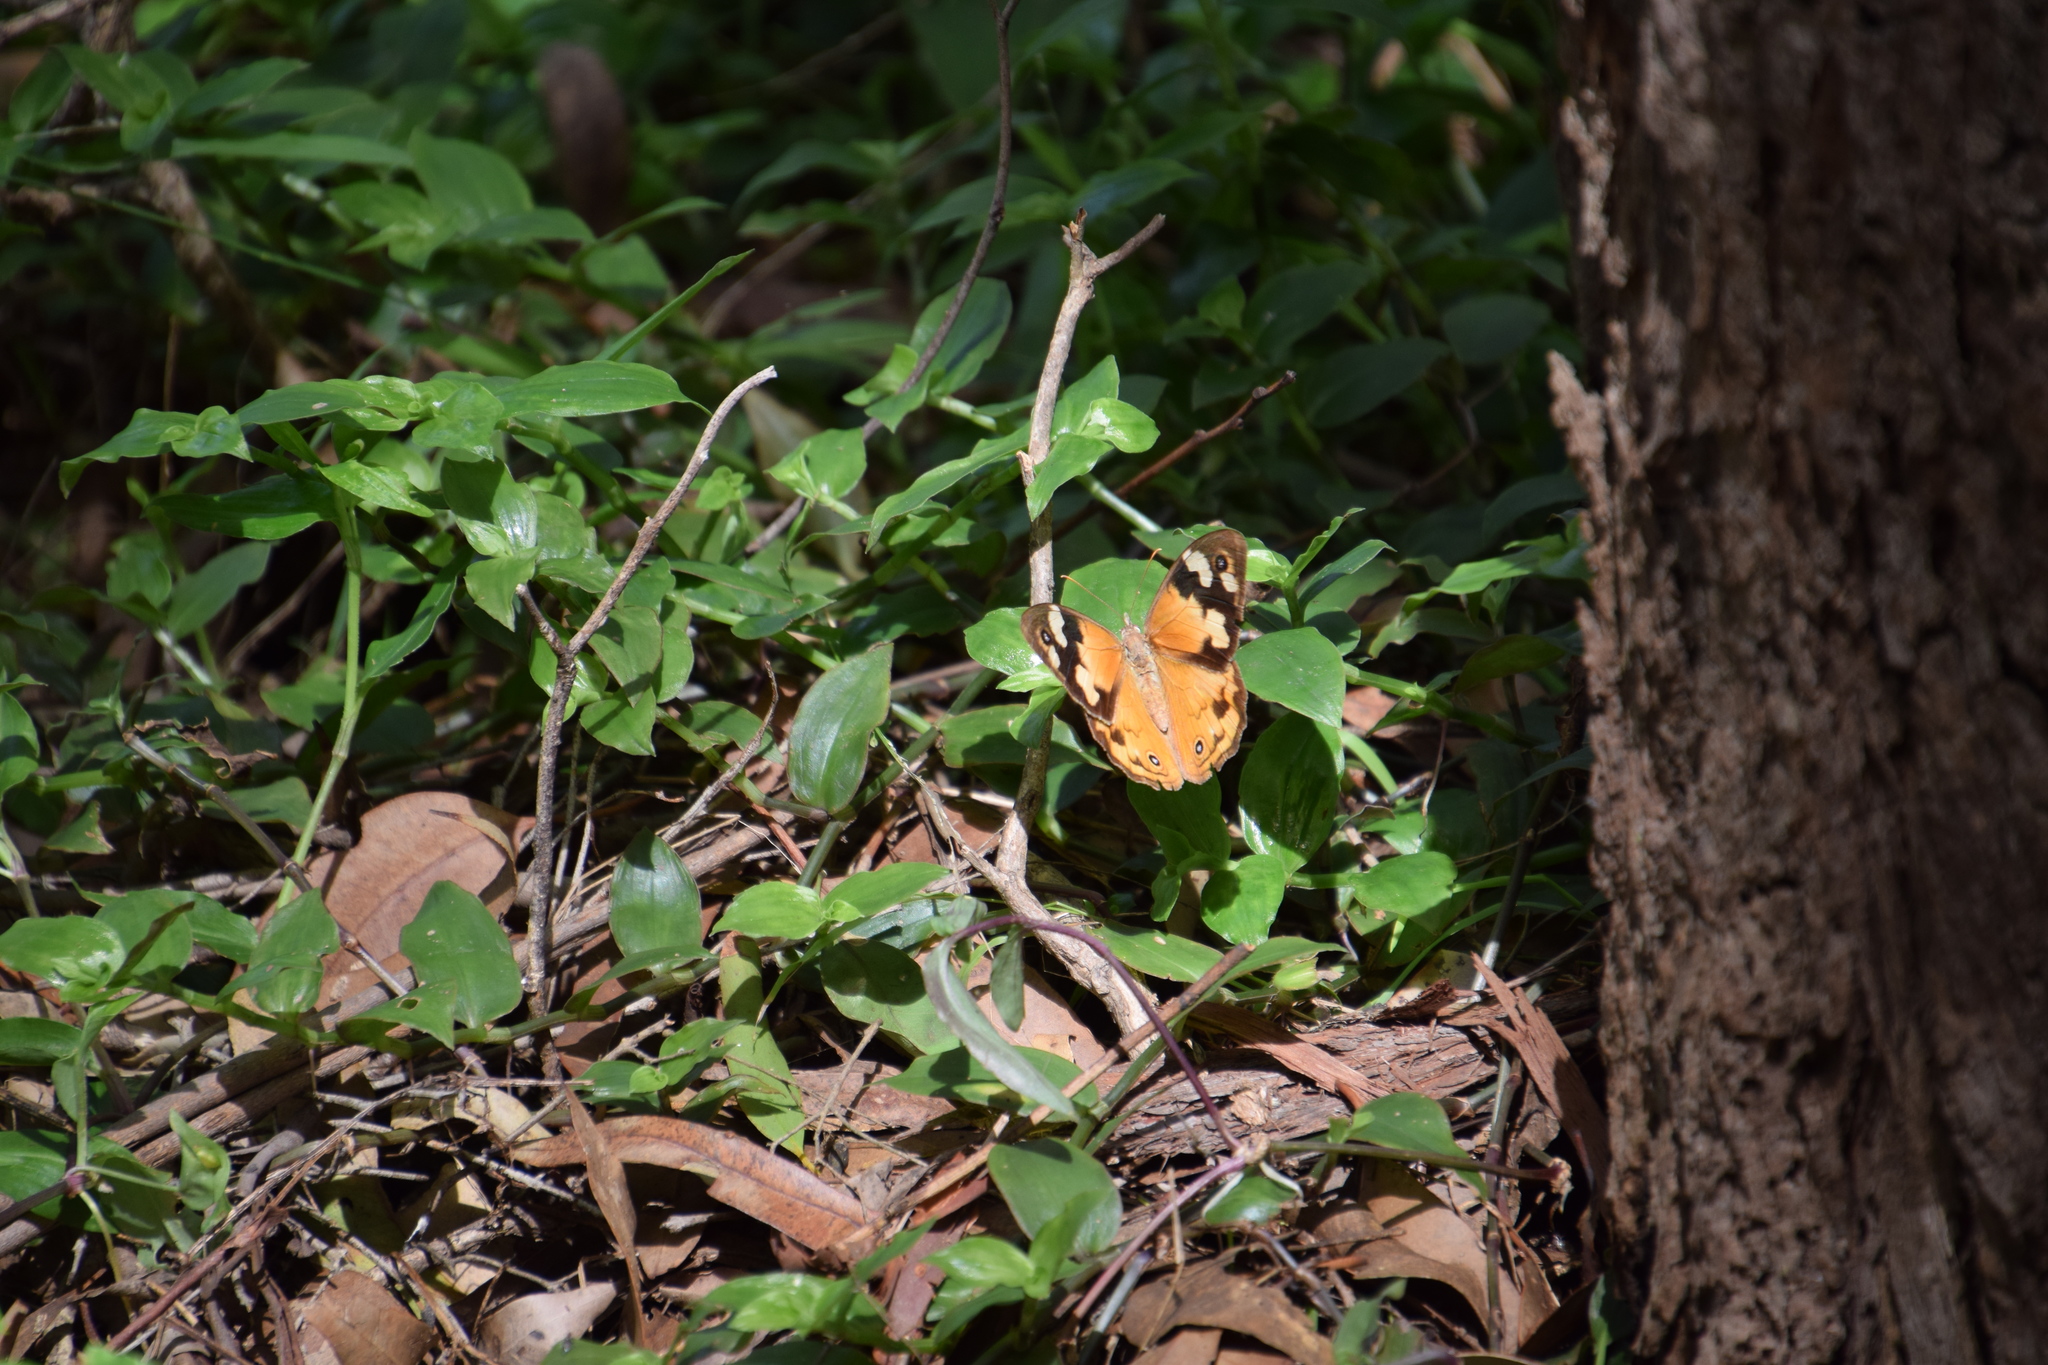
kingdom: Animalia
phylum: Arthropoda
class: Insecta
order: Lepidoptera
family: Nymphalidae
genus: Heteronympha
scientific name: Heteronympha merope
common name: Common brown
